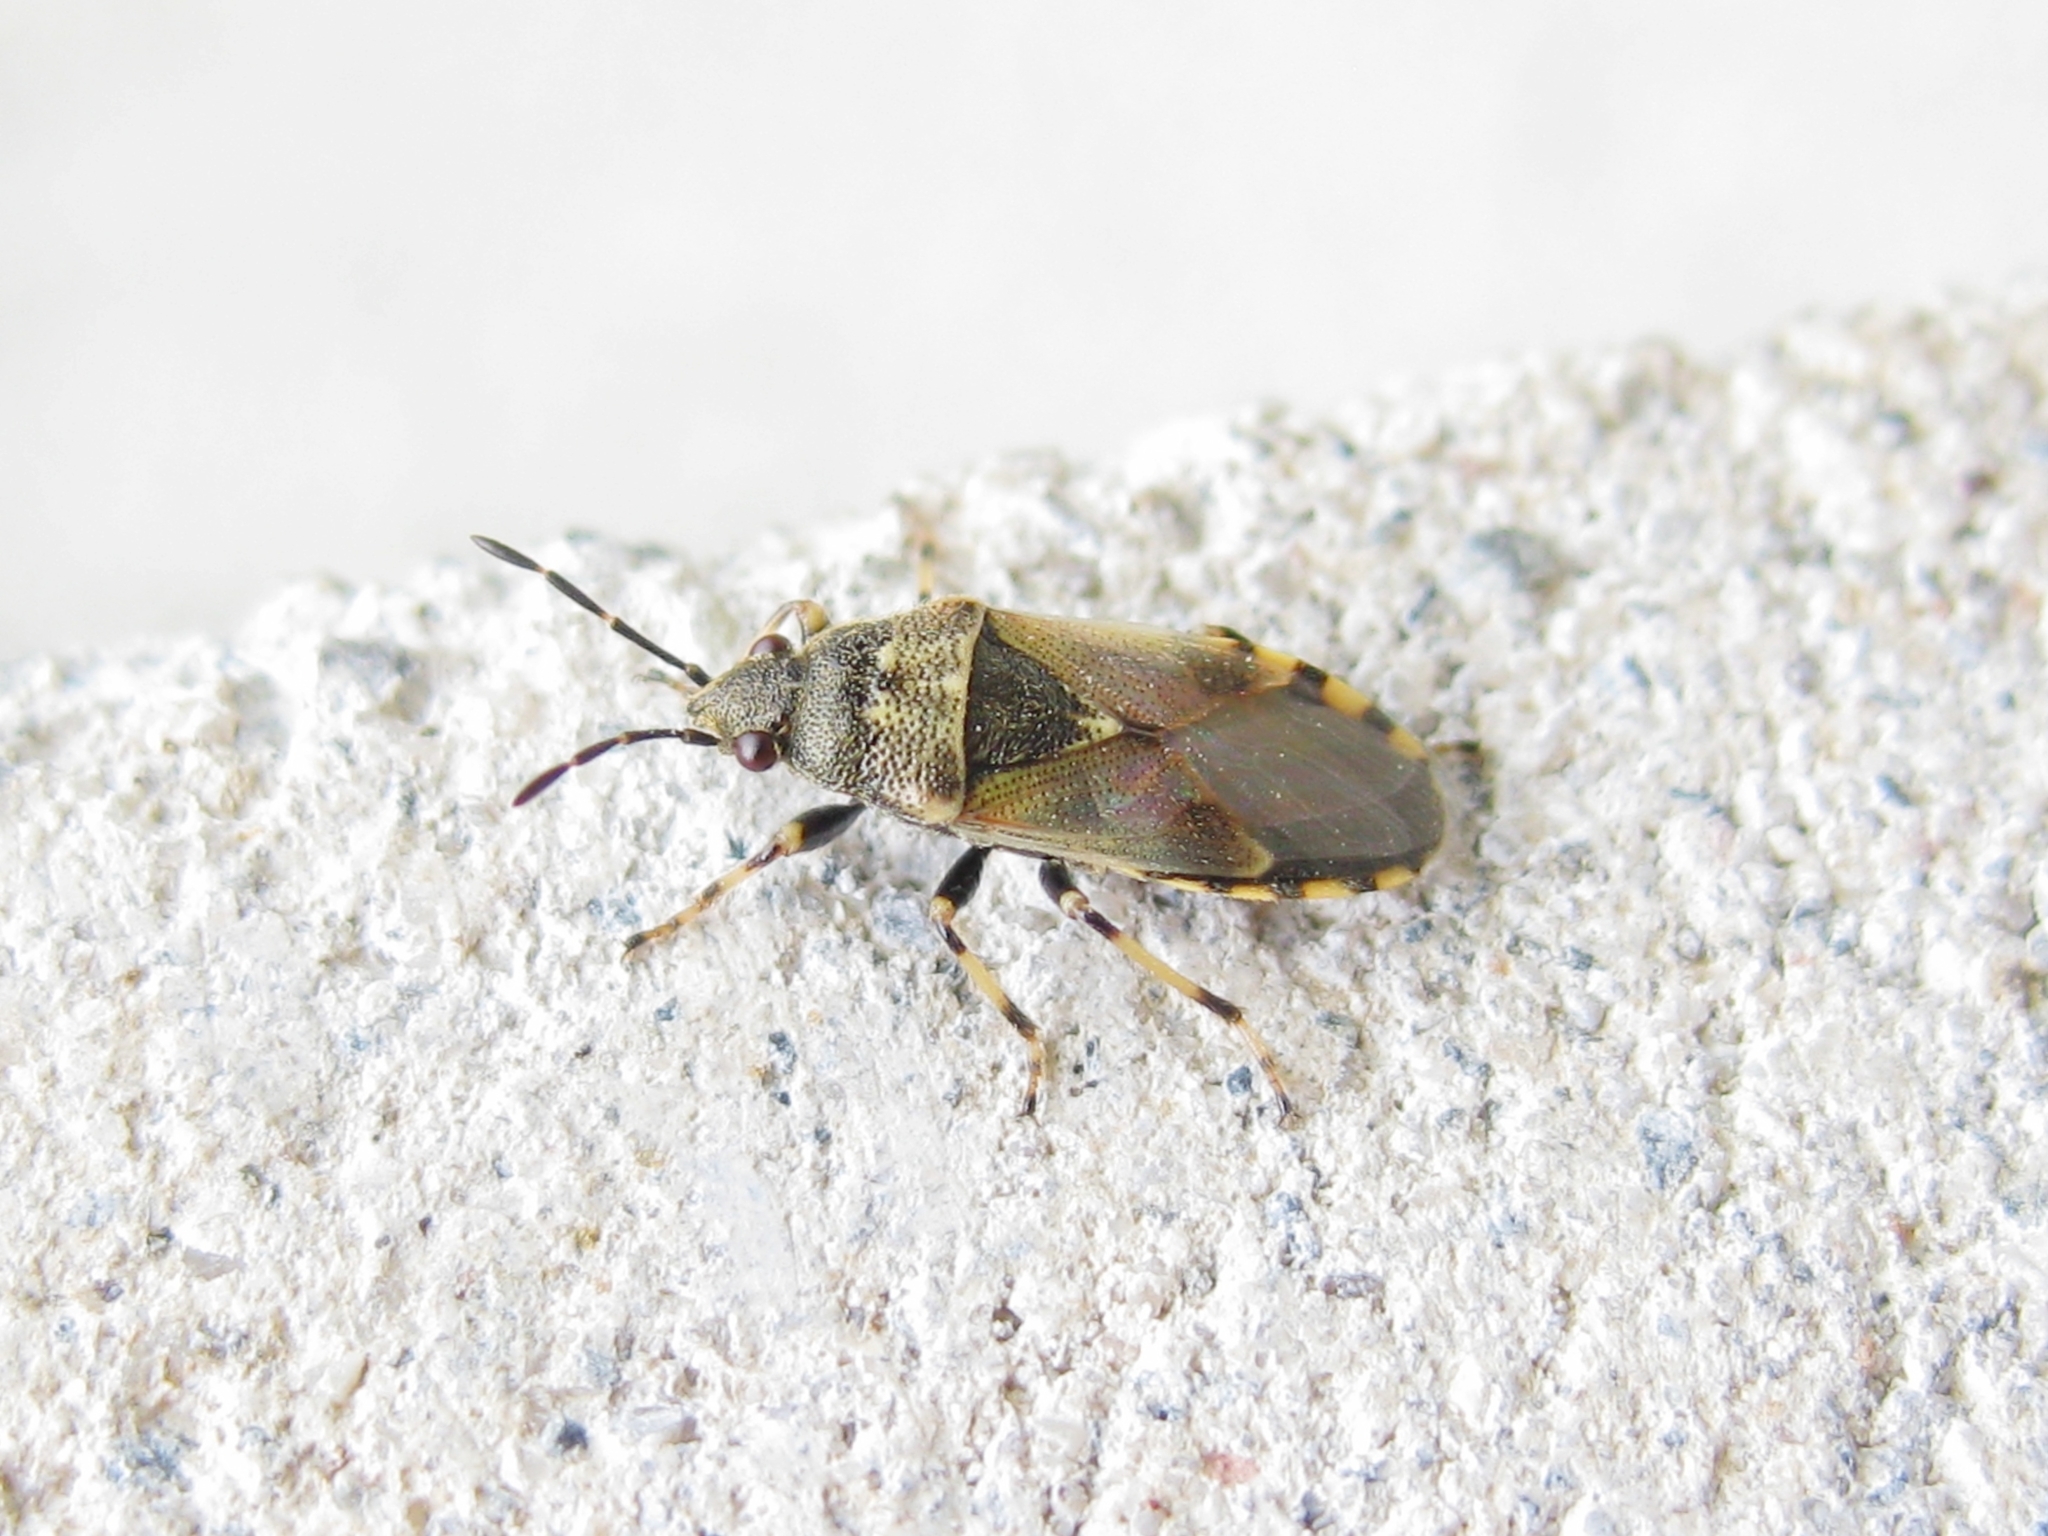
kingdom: Animalia
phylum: Arthropoda
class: Insecta
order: Hemiptera
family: Heterogastridae
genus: Heterogaster
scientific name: Heterogaster cathariae
